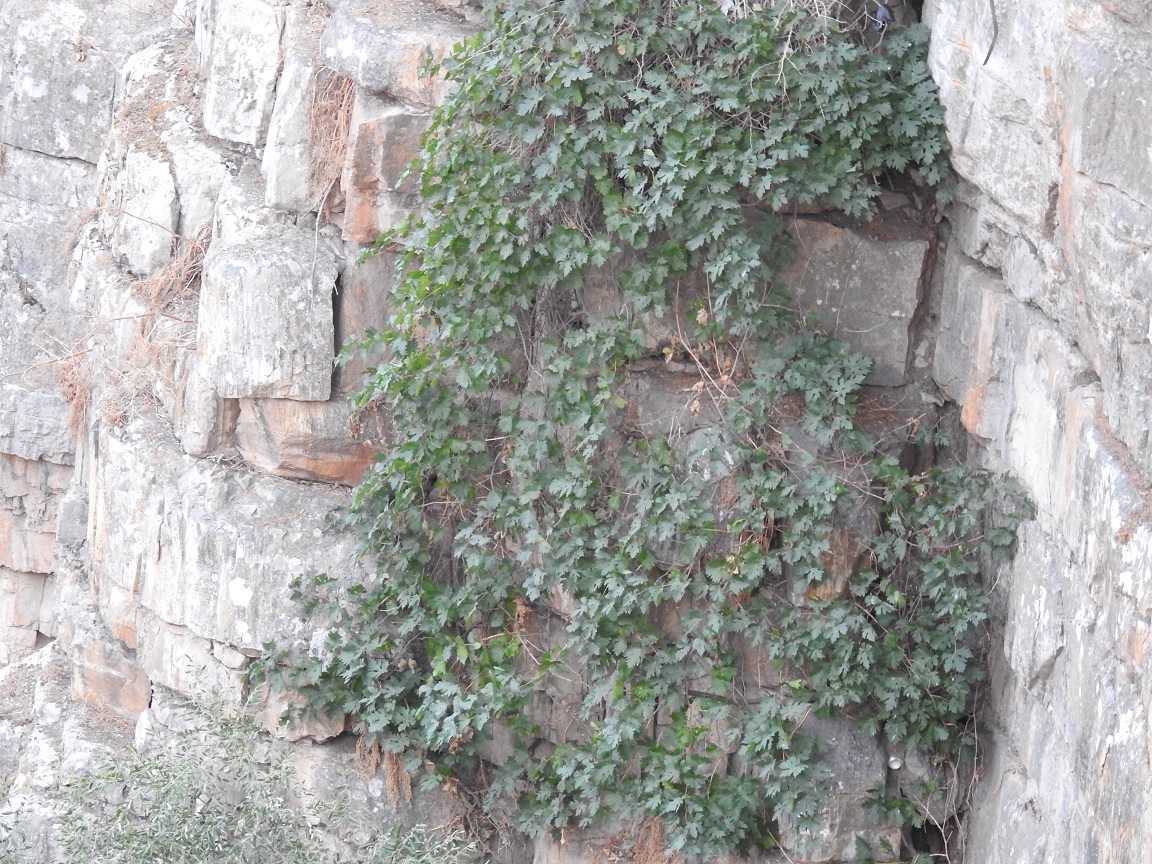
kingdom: Plantae
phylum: Tracheophyta
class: Magnoliopsida
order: Vitales
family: Vitaceae
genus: Vitis
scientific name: Vitis vinifera
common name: Grape-vine
